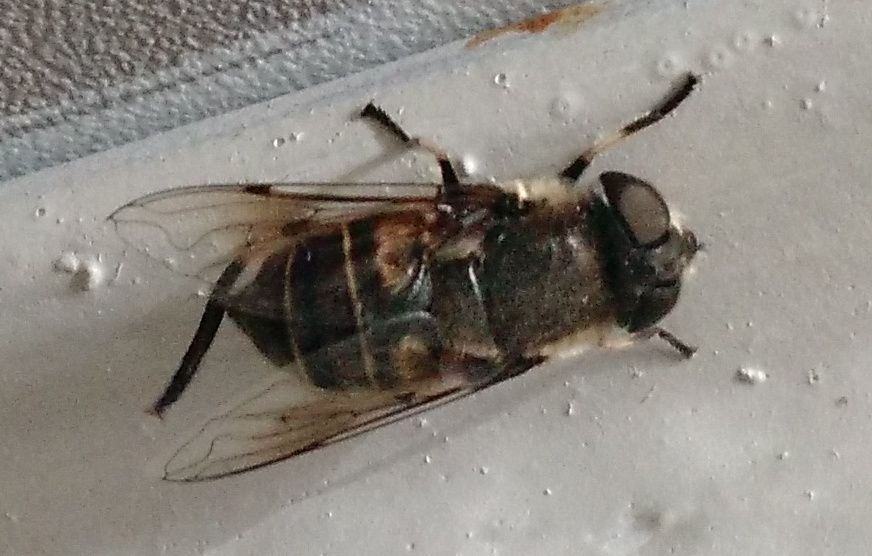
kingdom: Animalia
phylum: Arthropoda
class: Insecta
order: Diptera
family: Syrphidae
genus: Eristalis
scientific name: Eristalis dimidiata
